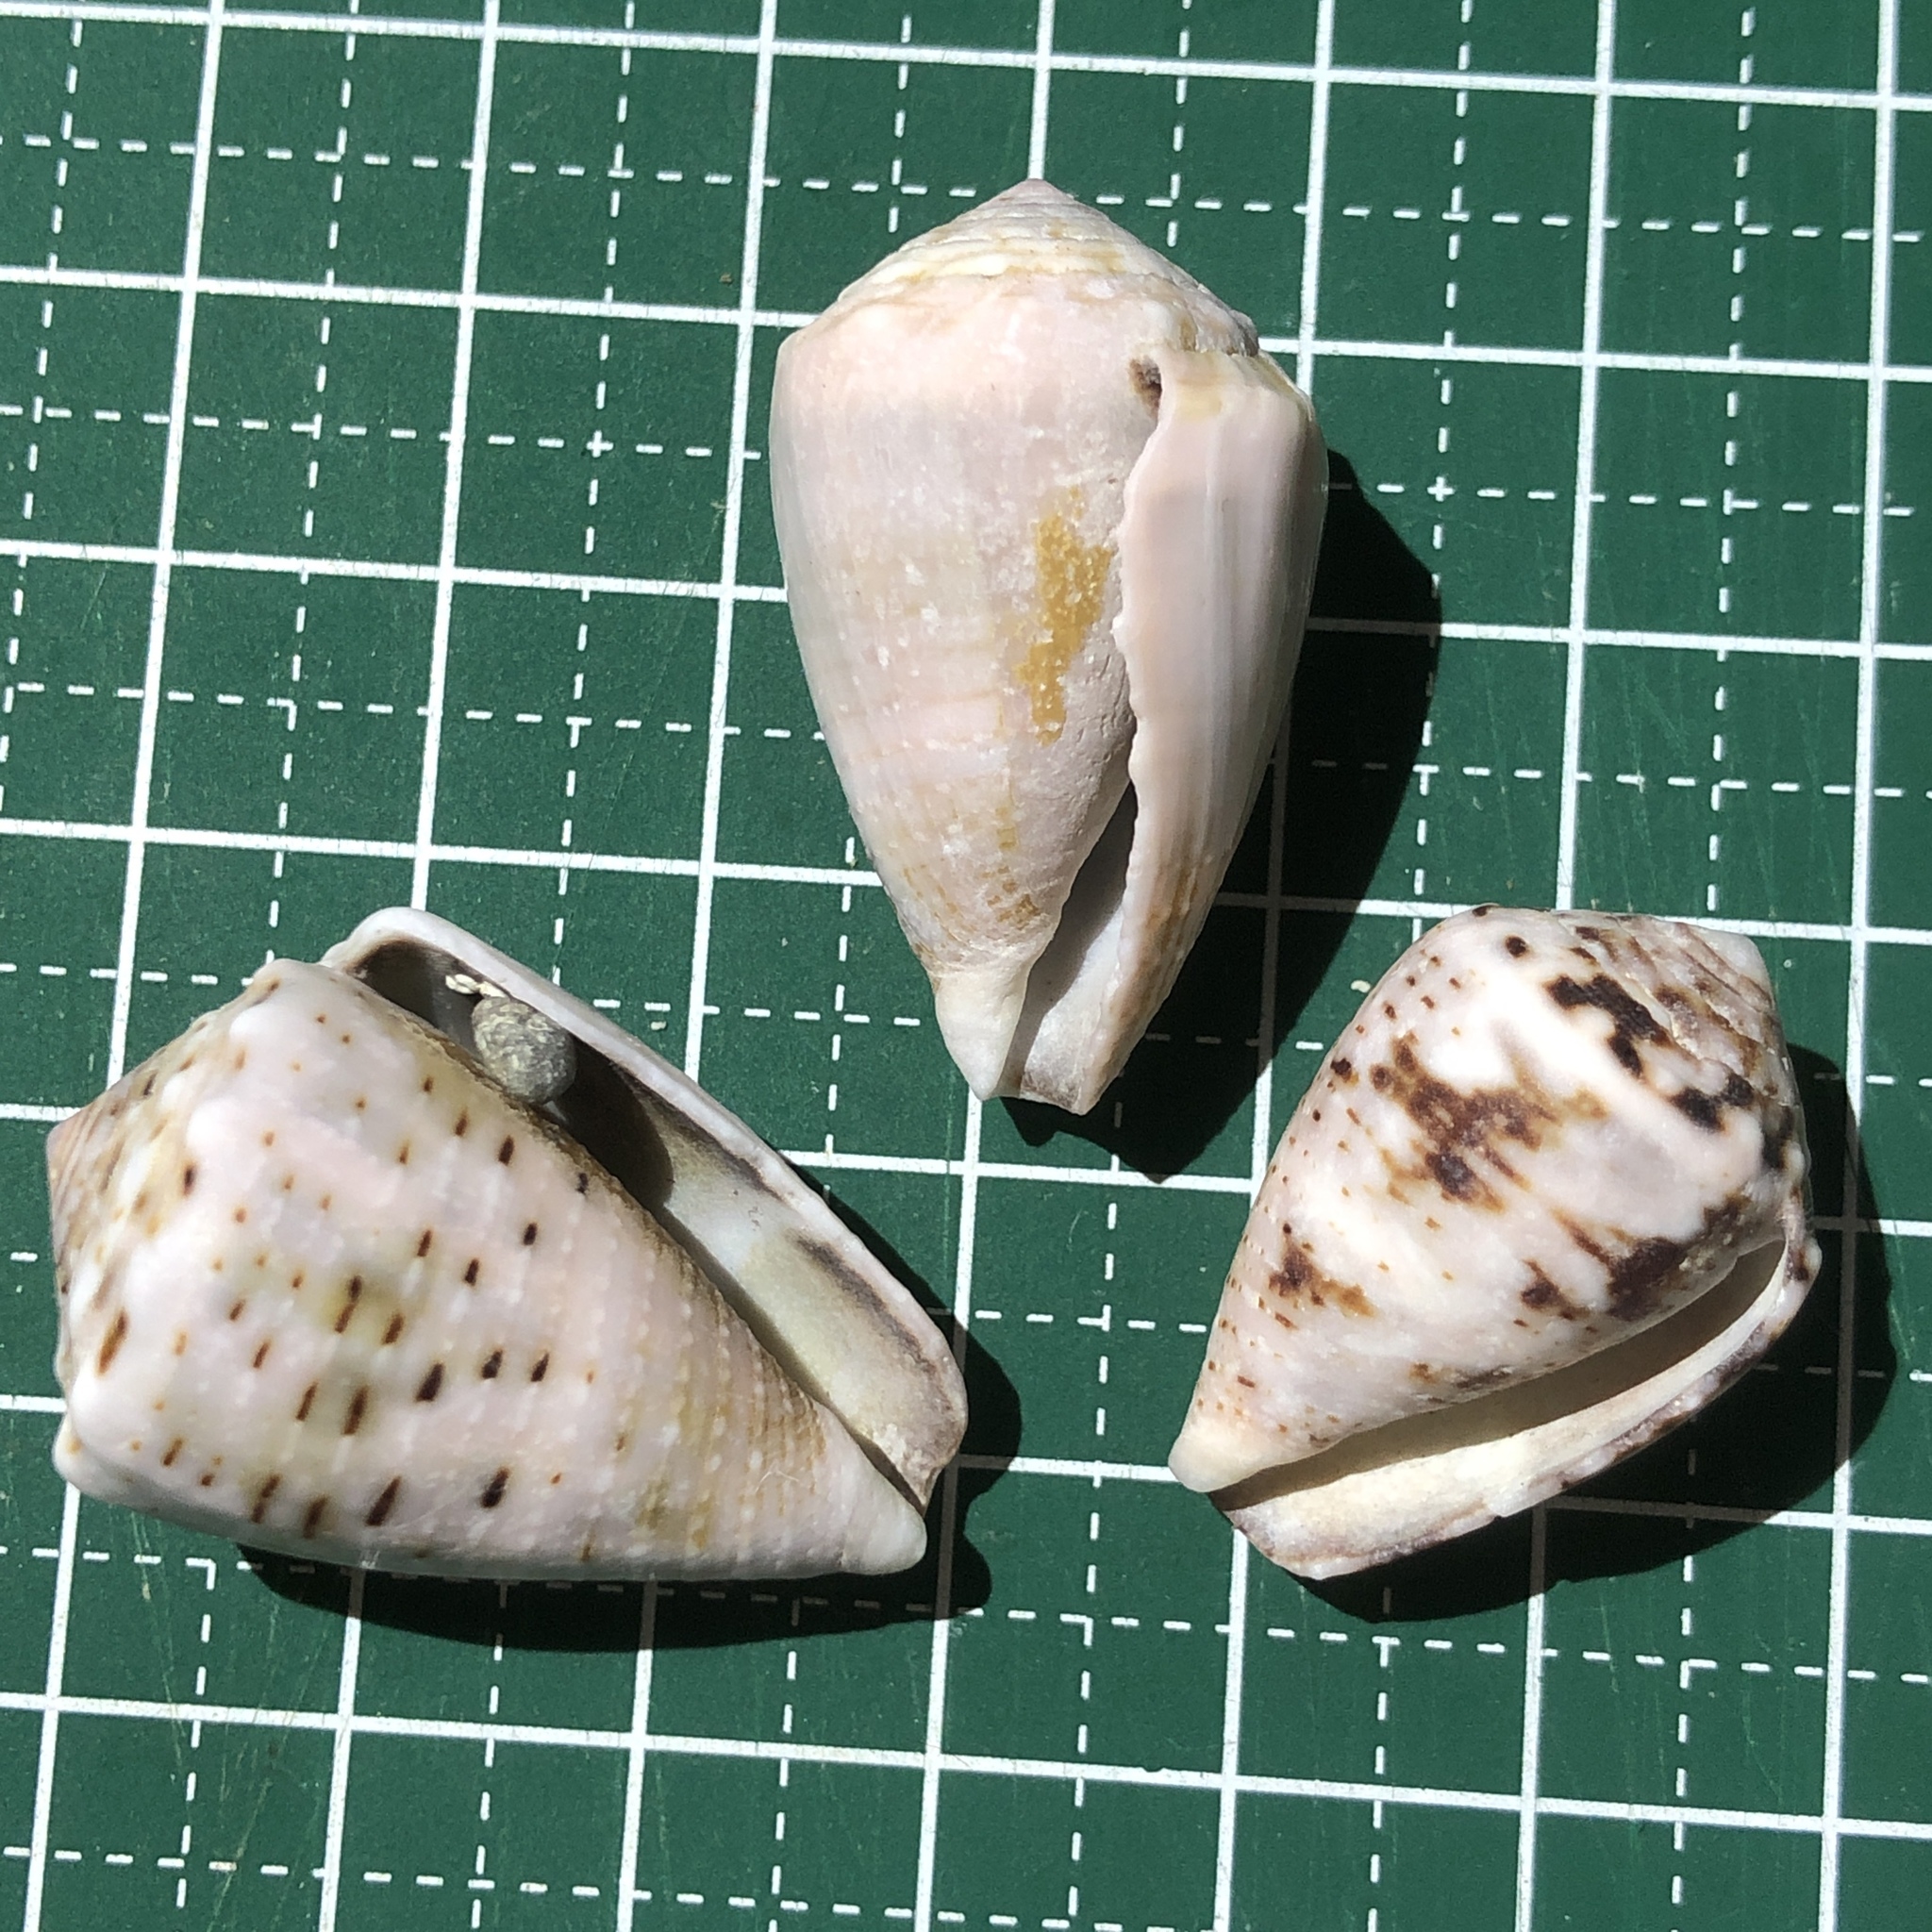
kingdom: Animalia
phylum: Mollusca
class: Gastropoda
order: Neogastropoda
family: Conidae
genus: Conus
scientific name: Conus coronatus
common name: Coronated cone
